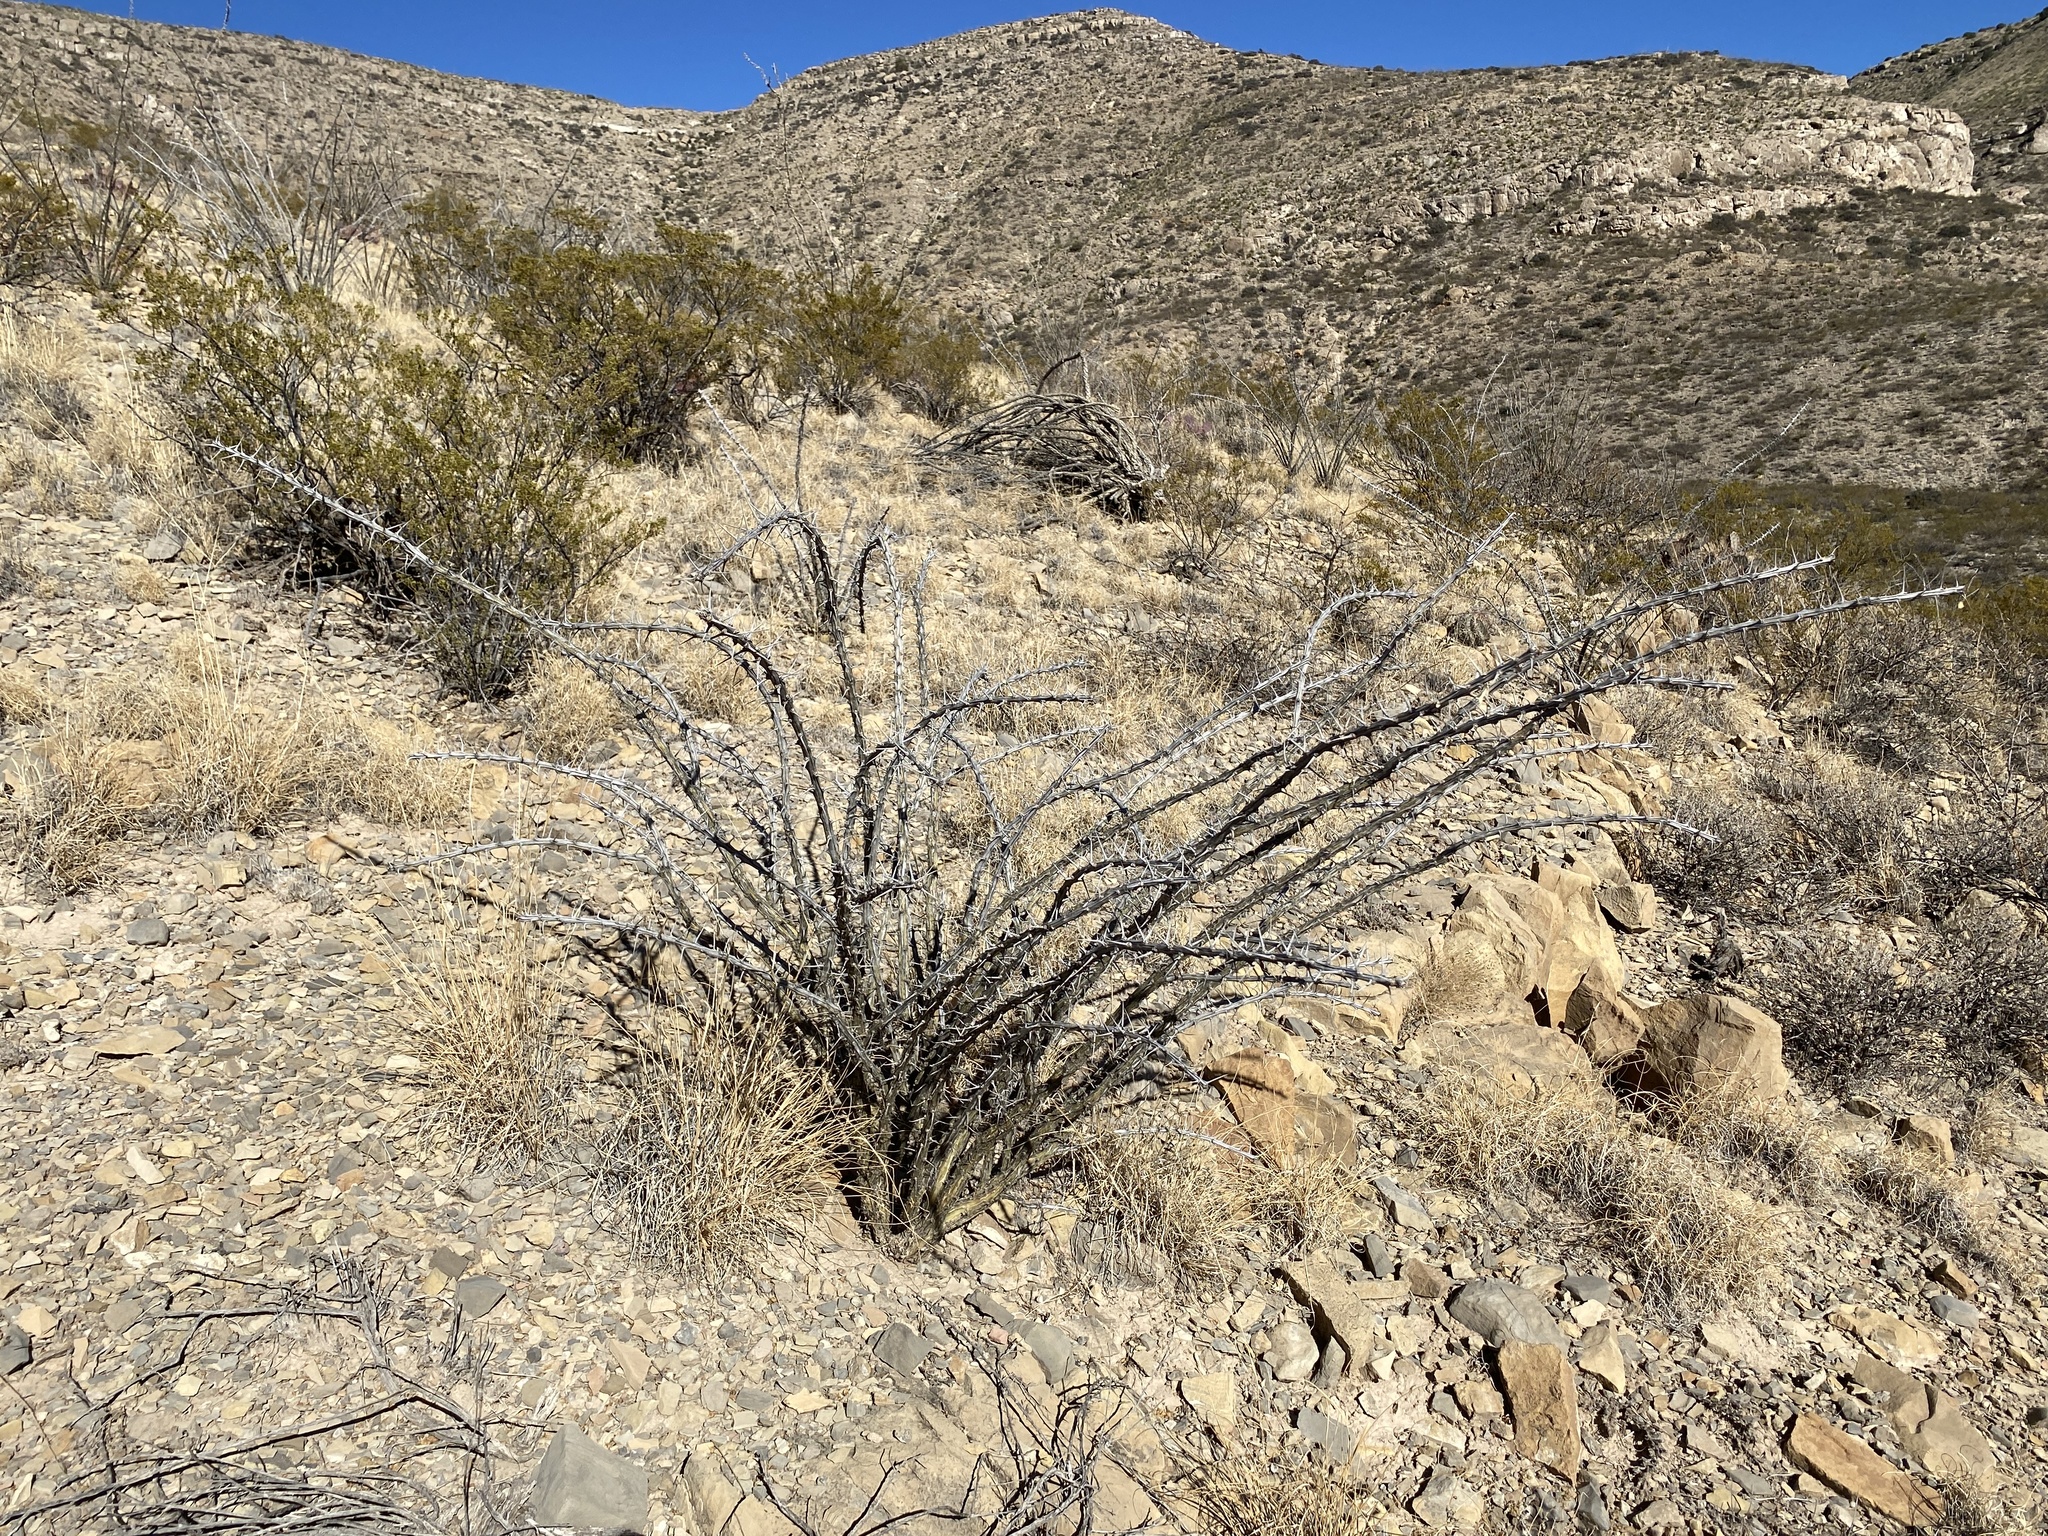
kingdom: Plantae
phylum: Tracheophyta
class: Magnoliopsida
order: Ericales
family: Fouquieriaceae
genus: Fouquieria
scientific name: Fouquieria splendens
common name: Vine-cactus
